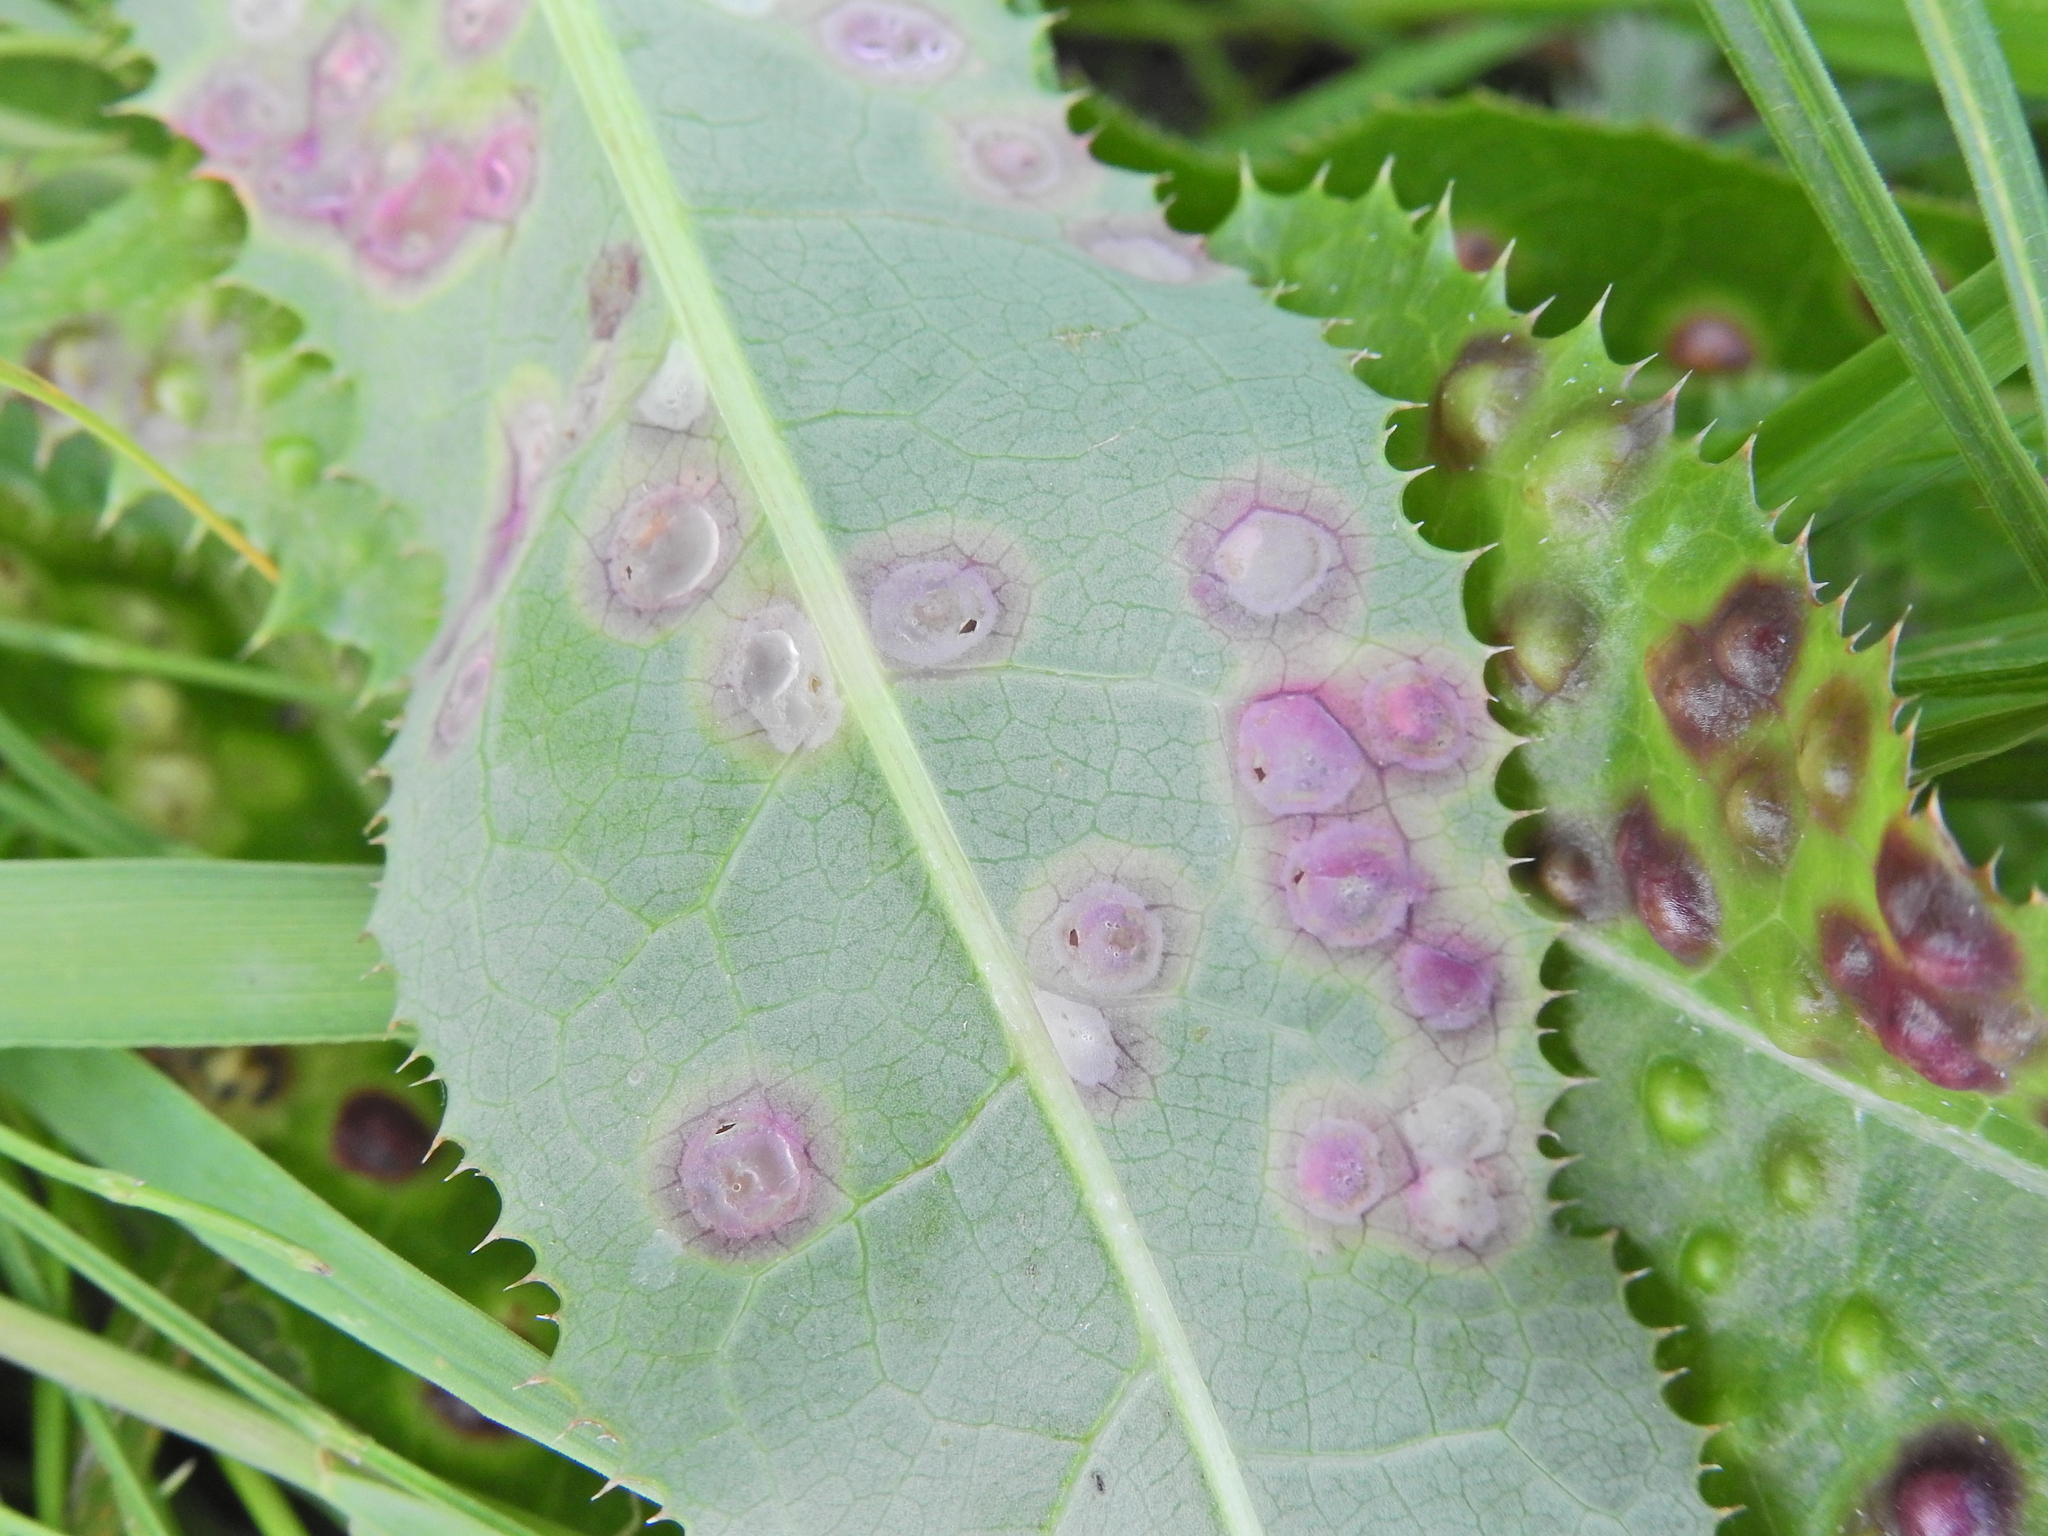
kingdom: Animalia
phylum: Arthropoda
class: Insecta
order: Diptera
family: Cecidomyiidae
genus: Cystiphora
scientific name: Cystiphora sonchi
